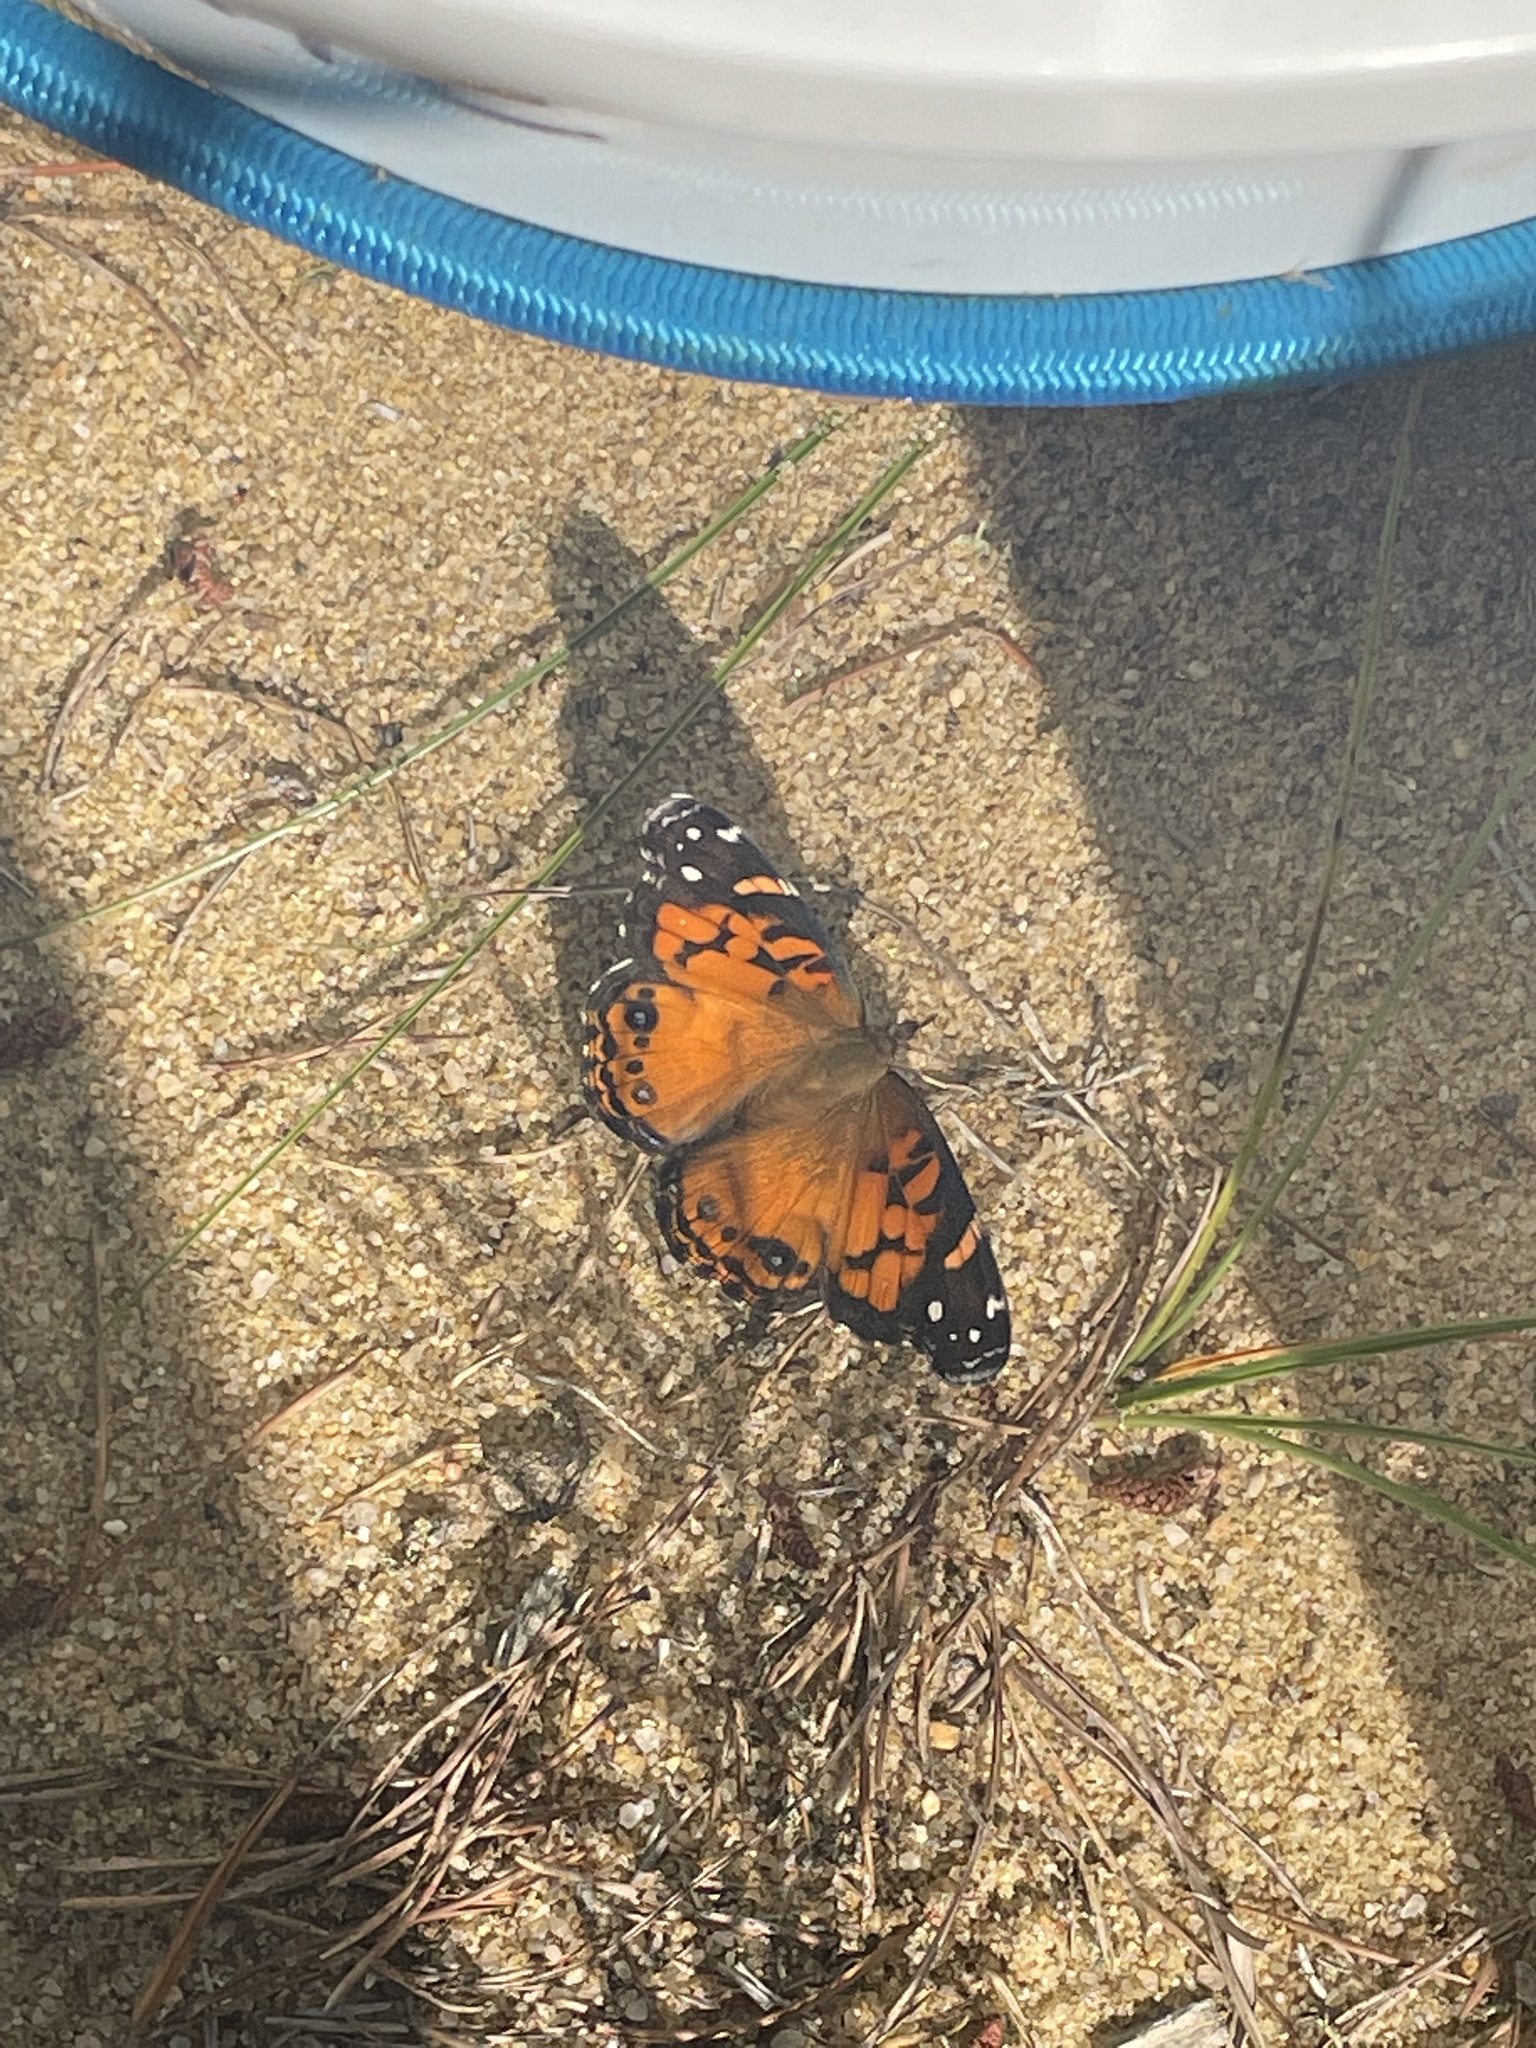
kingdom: Animalia
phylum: Arthropoda
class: Insecta
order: Lepidoptera
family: Nymphalidae
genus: Vanessa
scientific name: Vanessa virginiensis
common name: American lady
